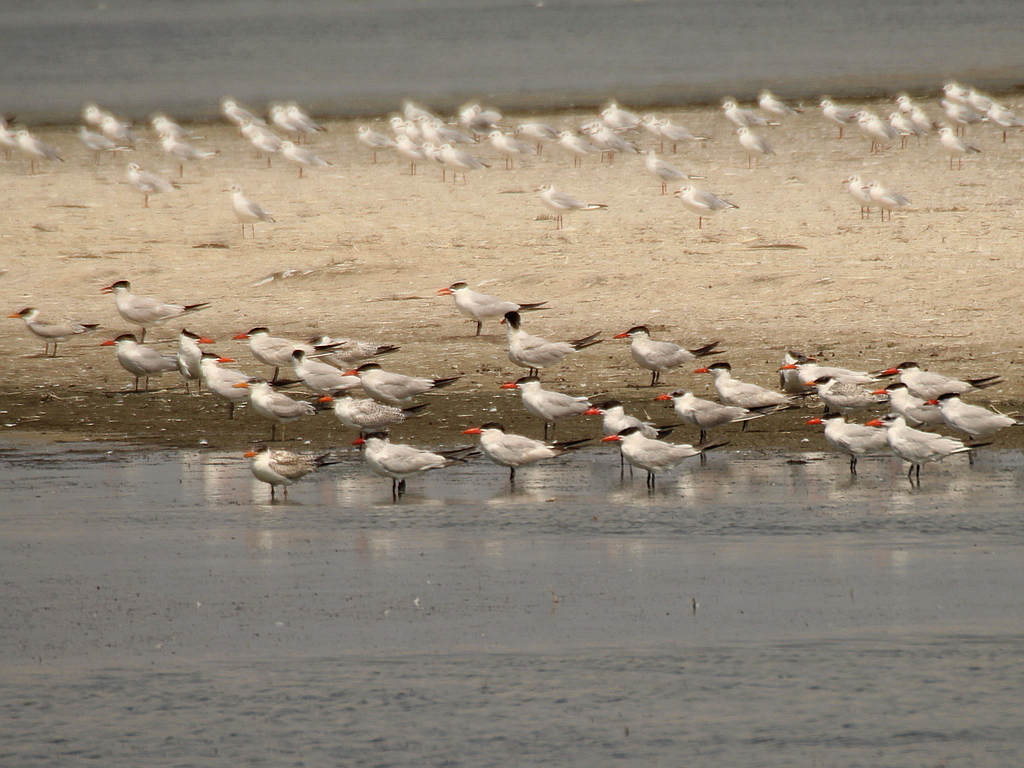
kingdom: Animalia
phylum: Chordata
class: Aves
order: Charadriiformes
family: Laridae
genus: Hydroprogne
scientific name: Hydroprogne caspia
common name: Caspian tern
